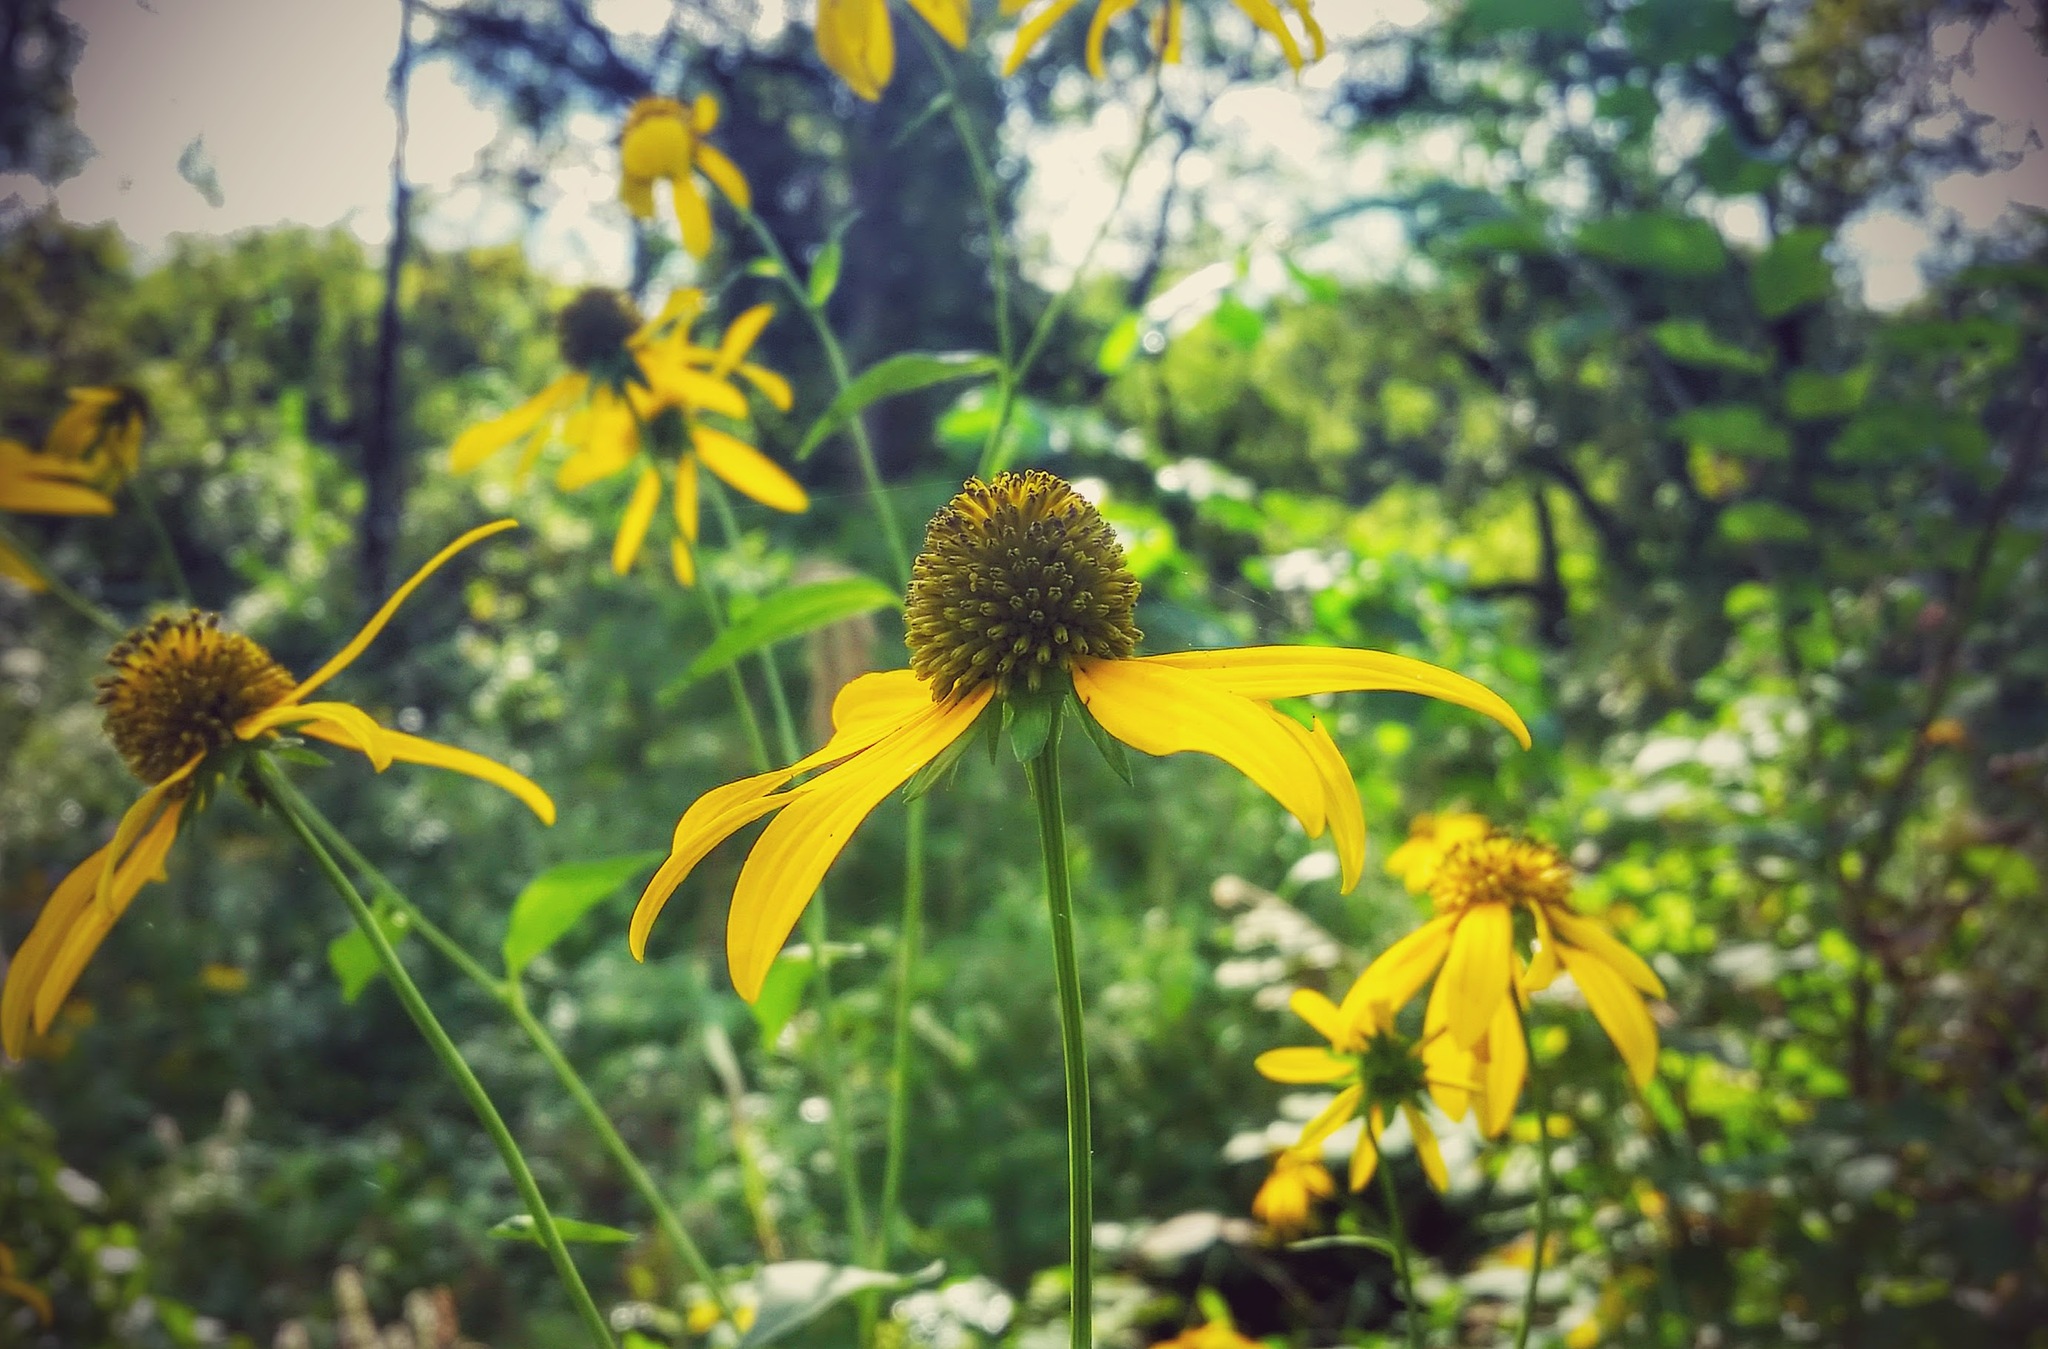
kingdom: Plantae
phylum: Tracheophyta
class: Magnoliopsida
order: Asterales
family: Asteraceae
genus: Rudbeckia
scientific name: Rudbeckia laciniata
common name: Coneflower
